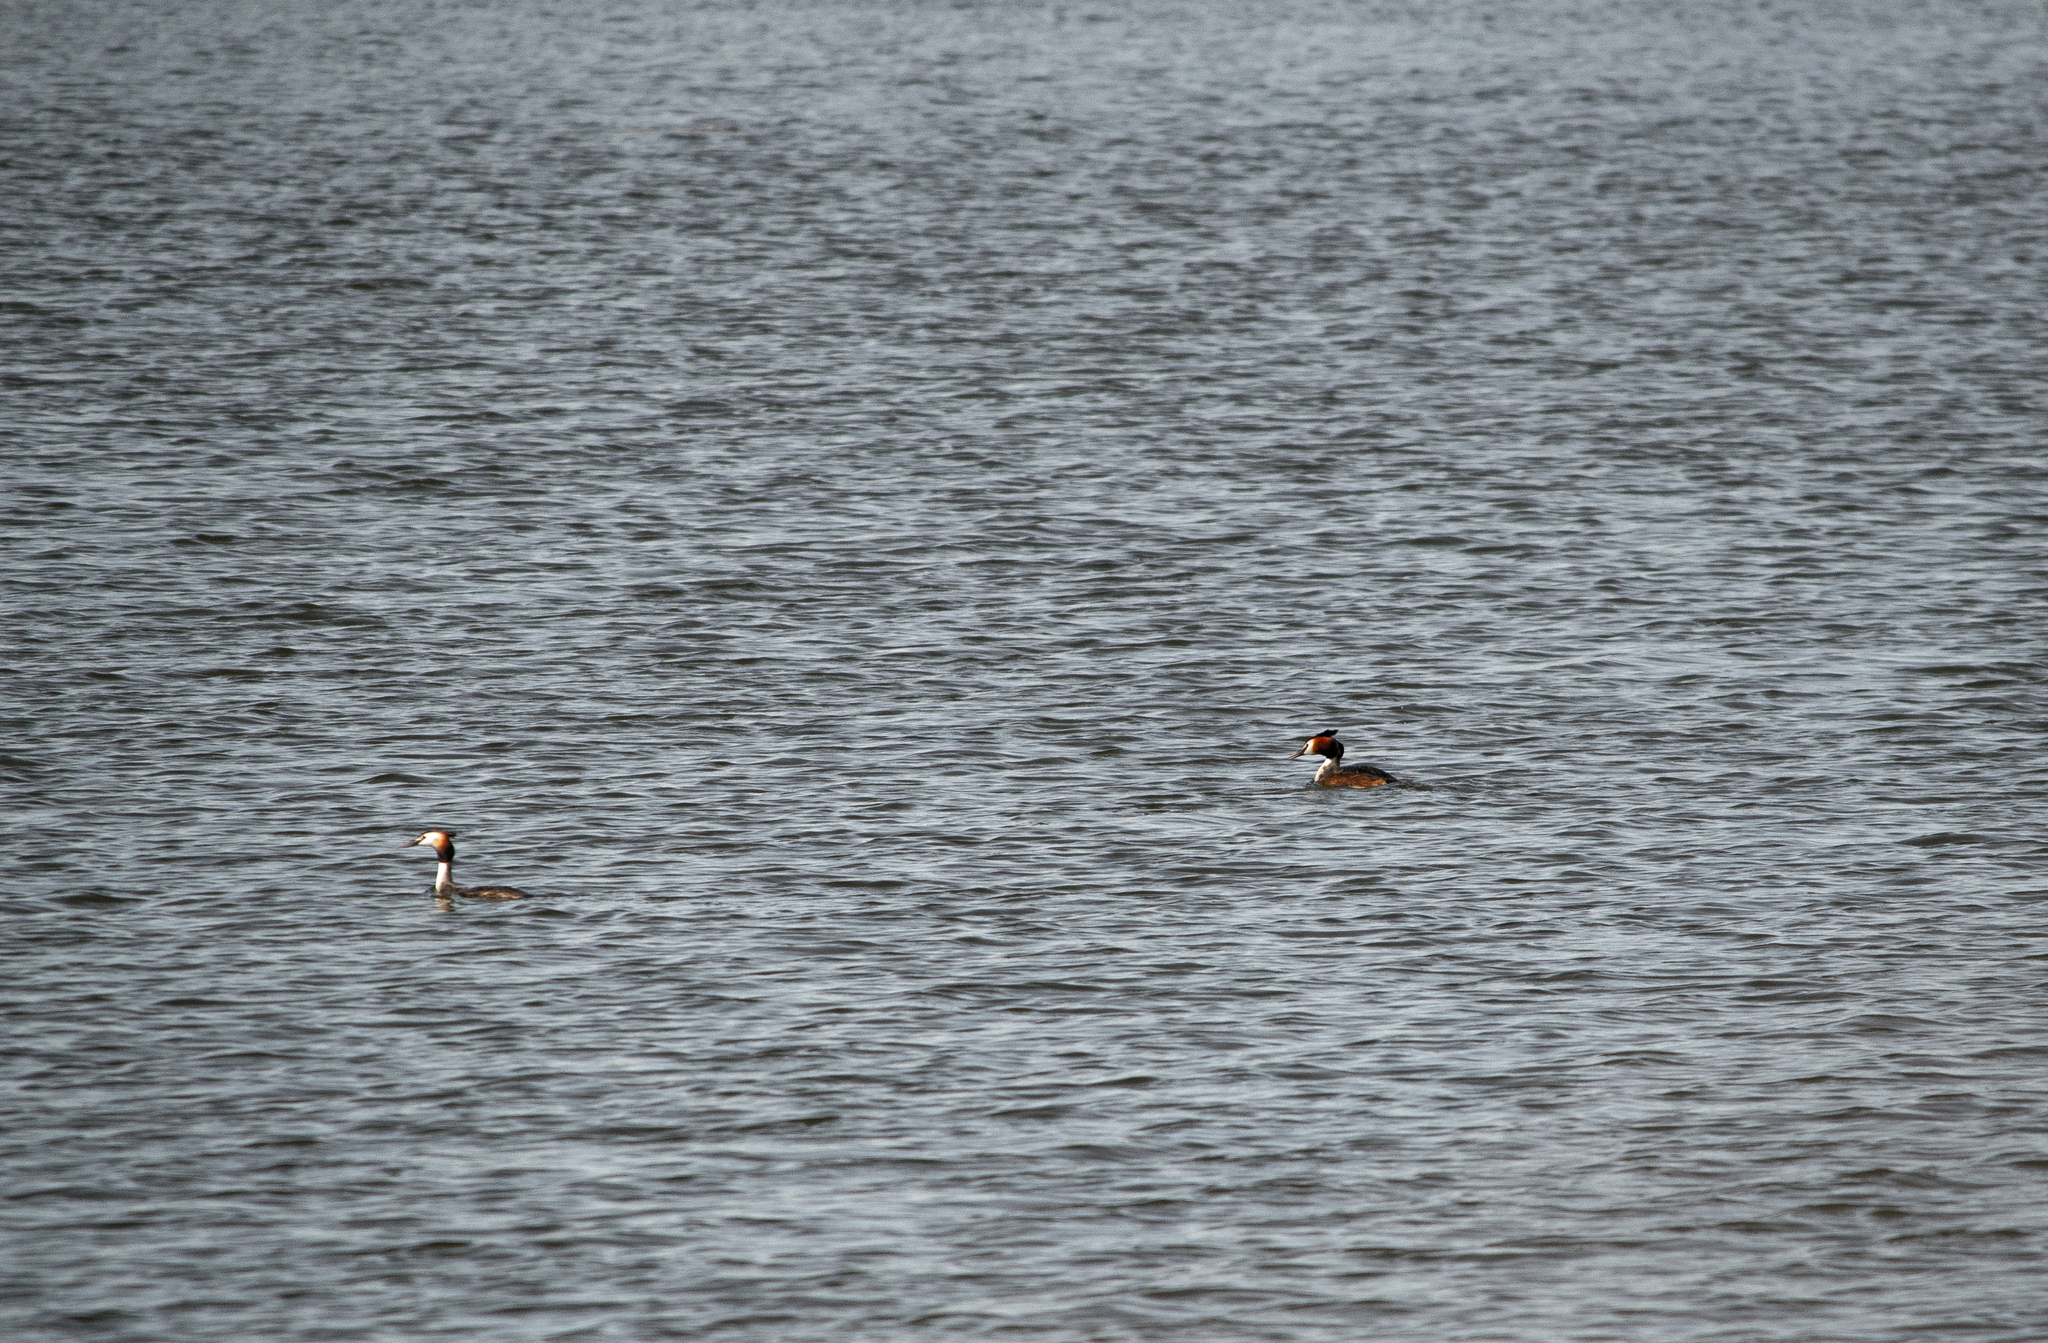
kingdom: Animalia
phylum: Chordata
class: Aves
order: Podicipediformes
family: Podicipedidae
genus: Podiceps
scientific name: Podiceps cristatus
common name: Great crested grebe
